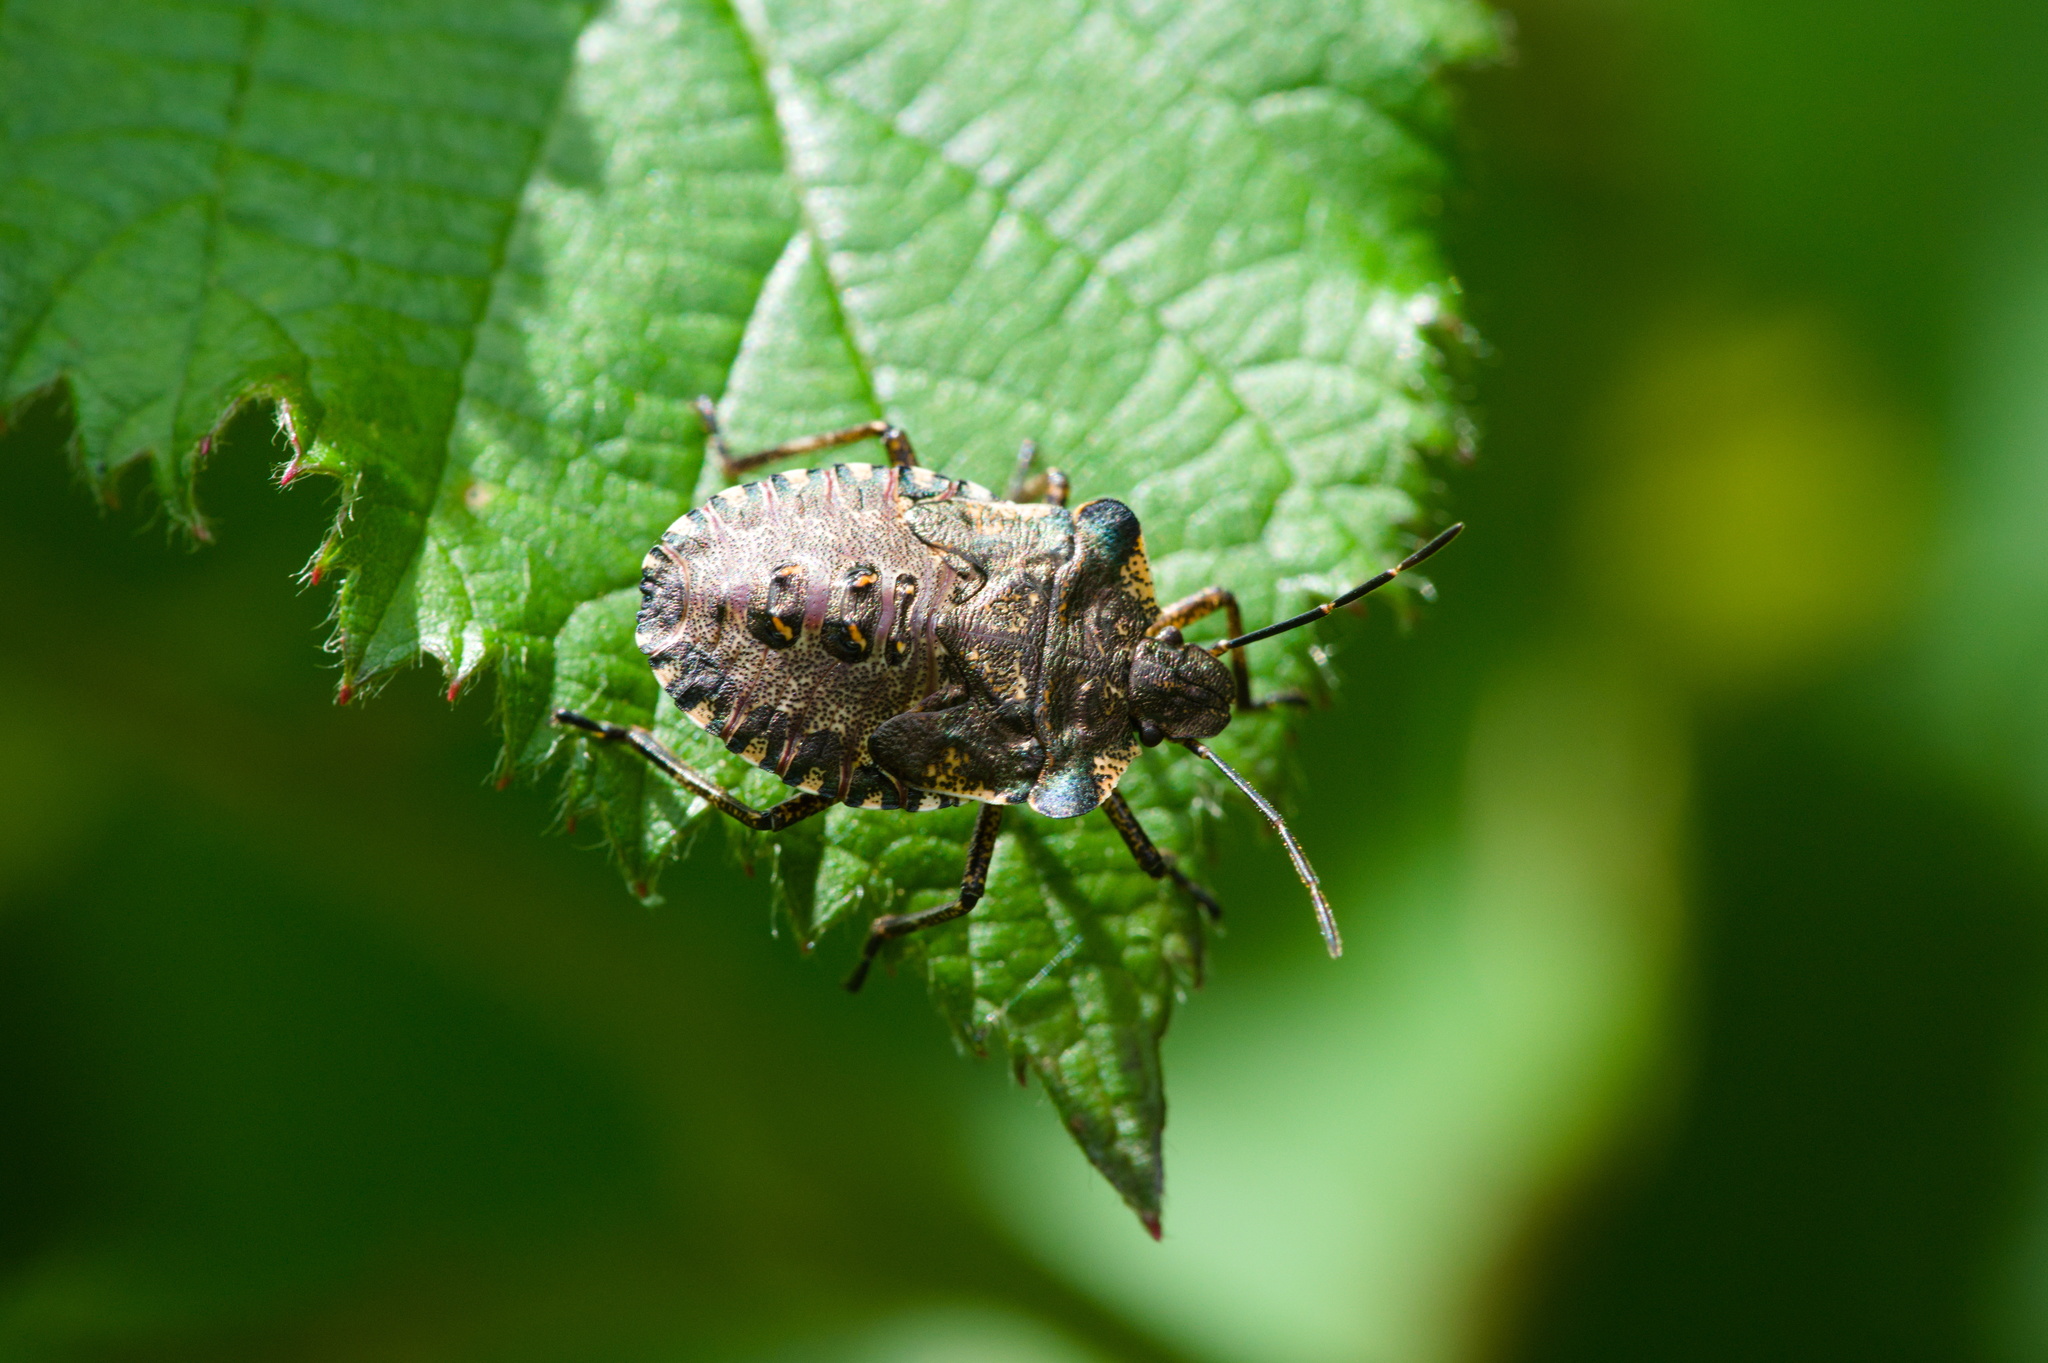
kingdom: Animalia
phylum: Arthropoda
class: Insecta
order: Hemiptera
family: Pentatomidae
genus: Pentatoma
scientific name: Pentatoma rufipes
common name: Forest bug
